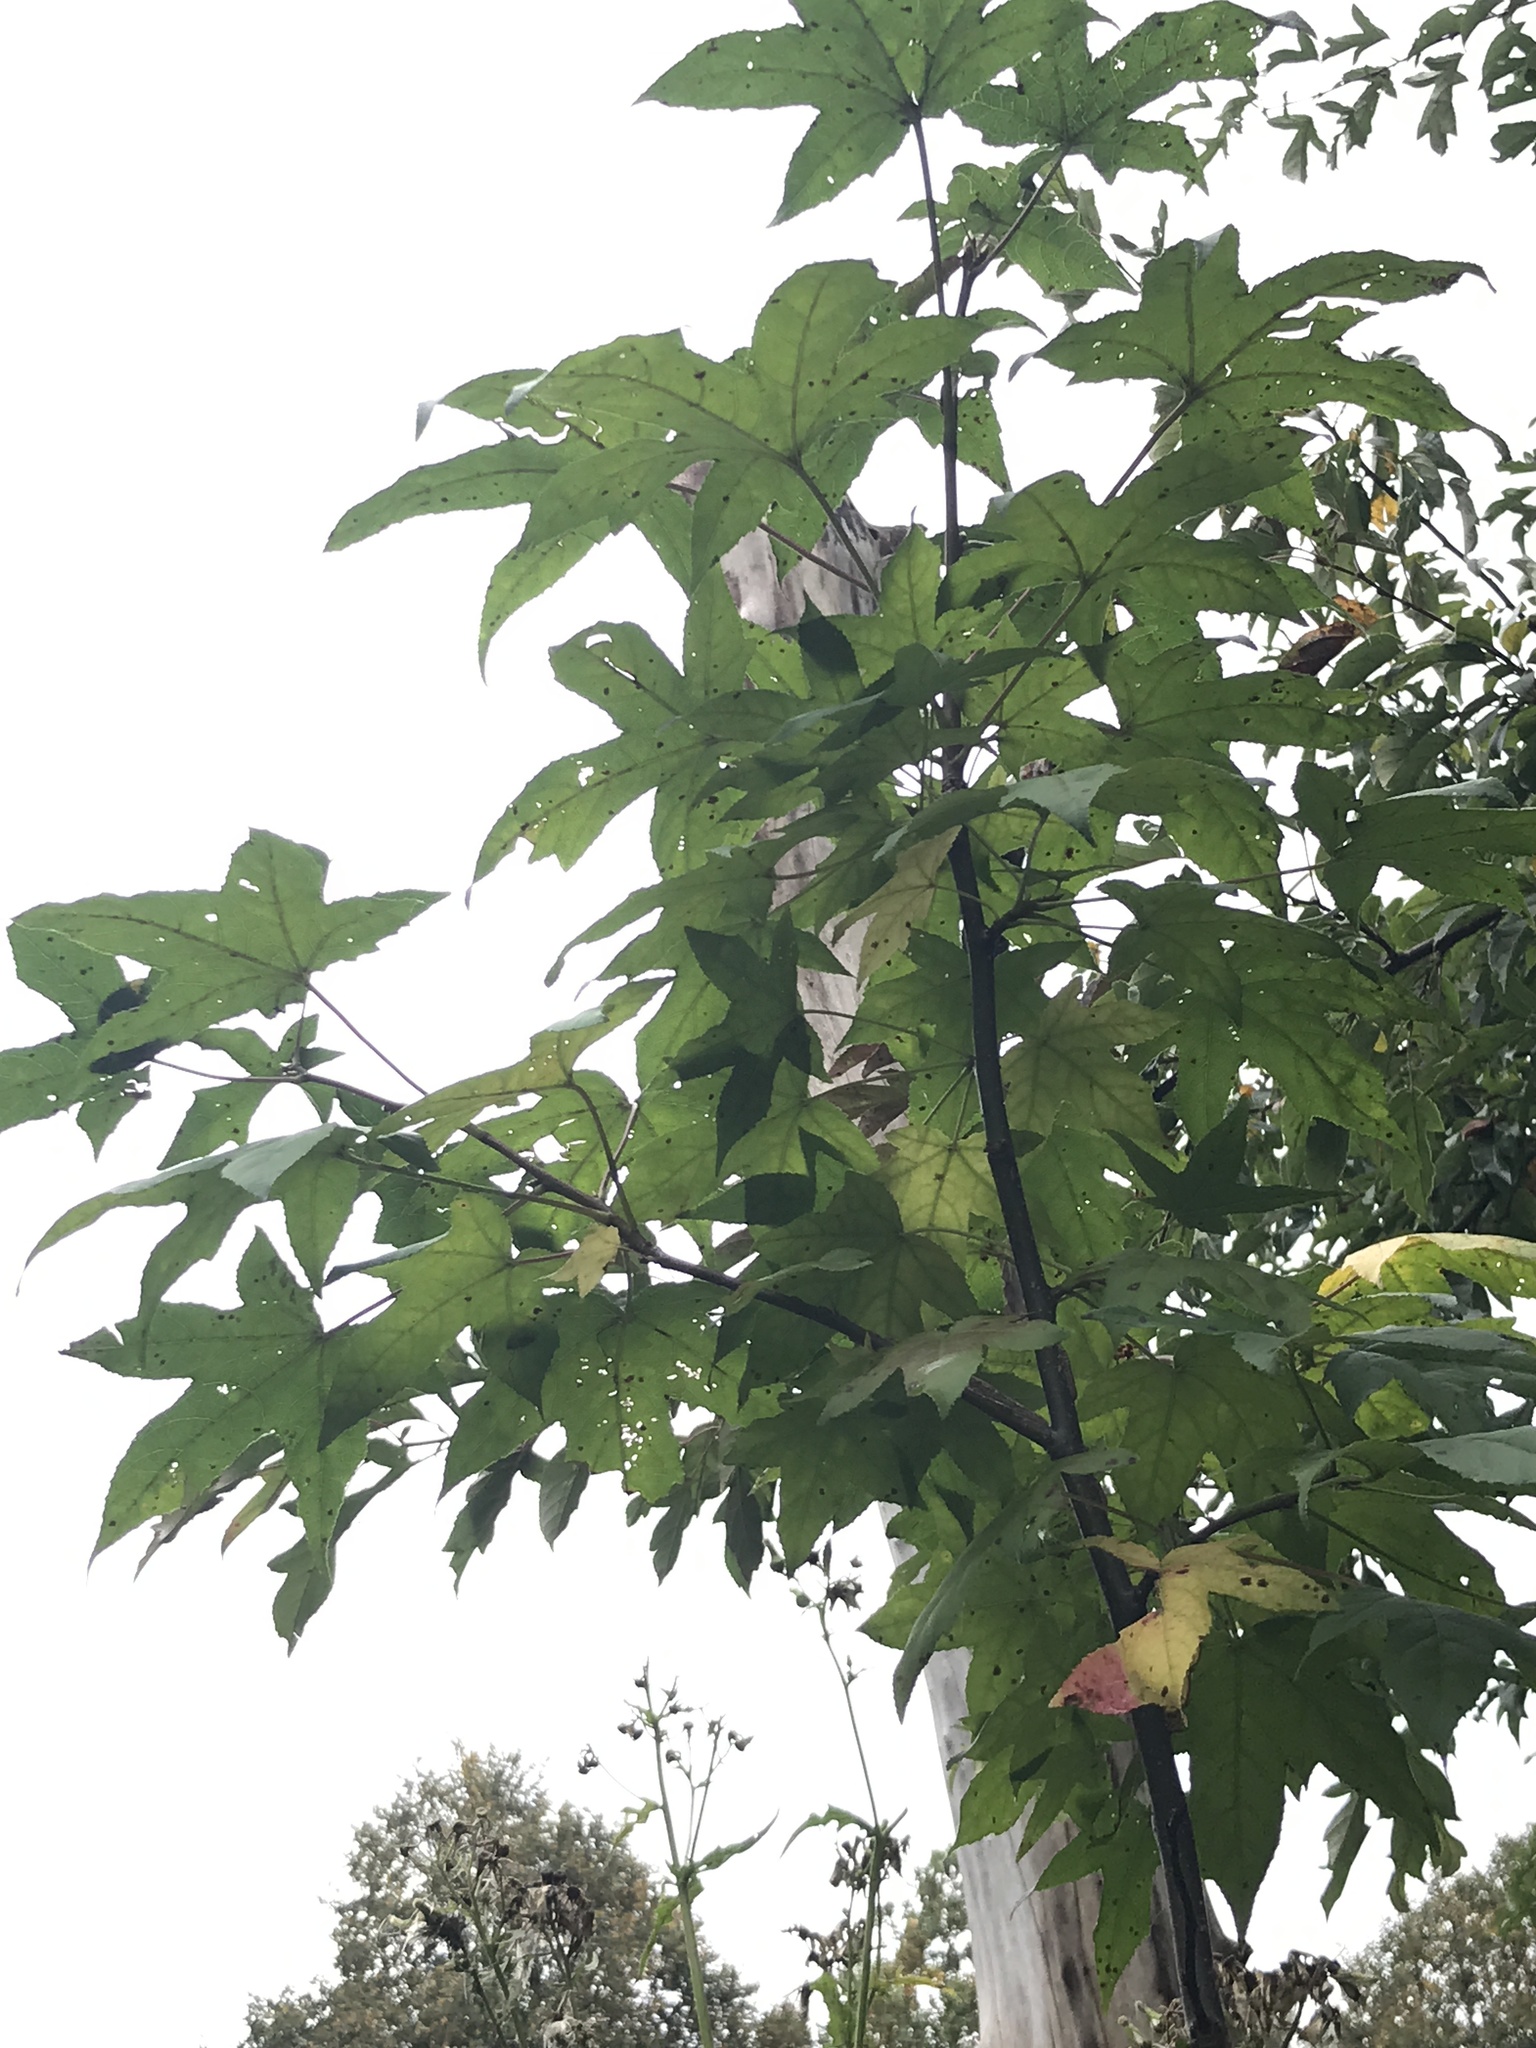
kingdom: Plantae
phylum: Tracheophyta
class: Magnoliopsida
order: Saxifragales
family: Altingiaceae
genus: Liquidambar
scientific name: Liquidambar styraciflua
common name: Sweet gum
